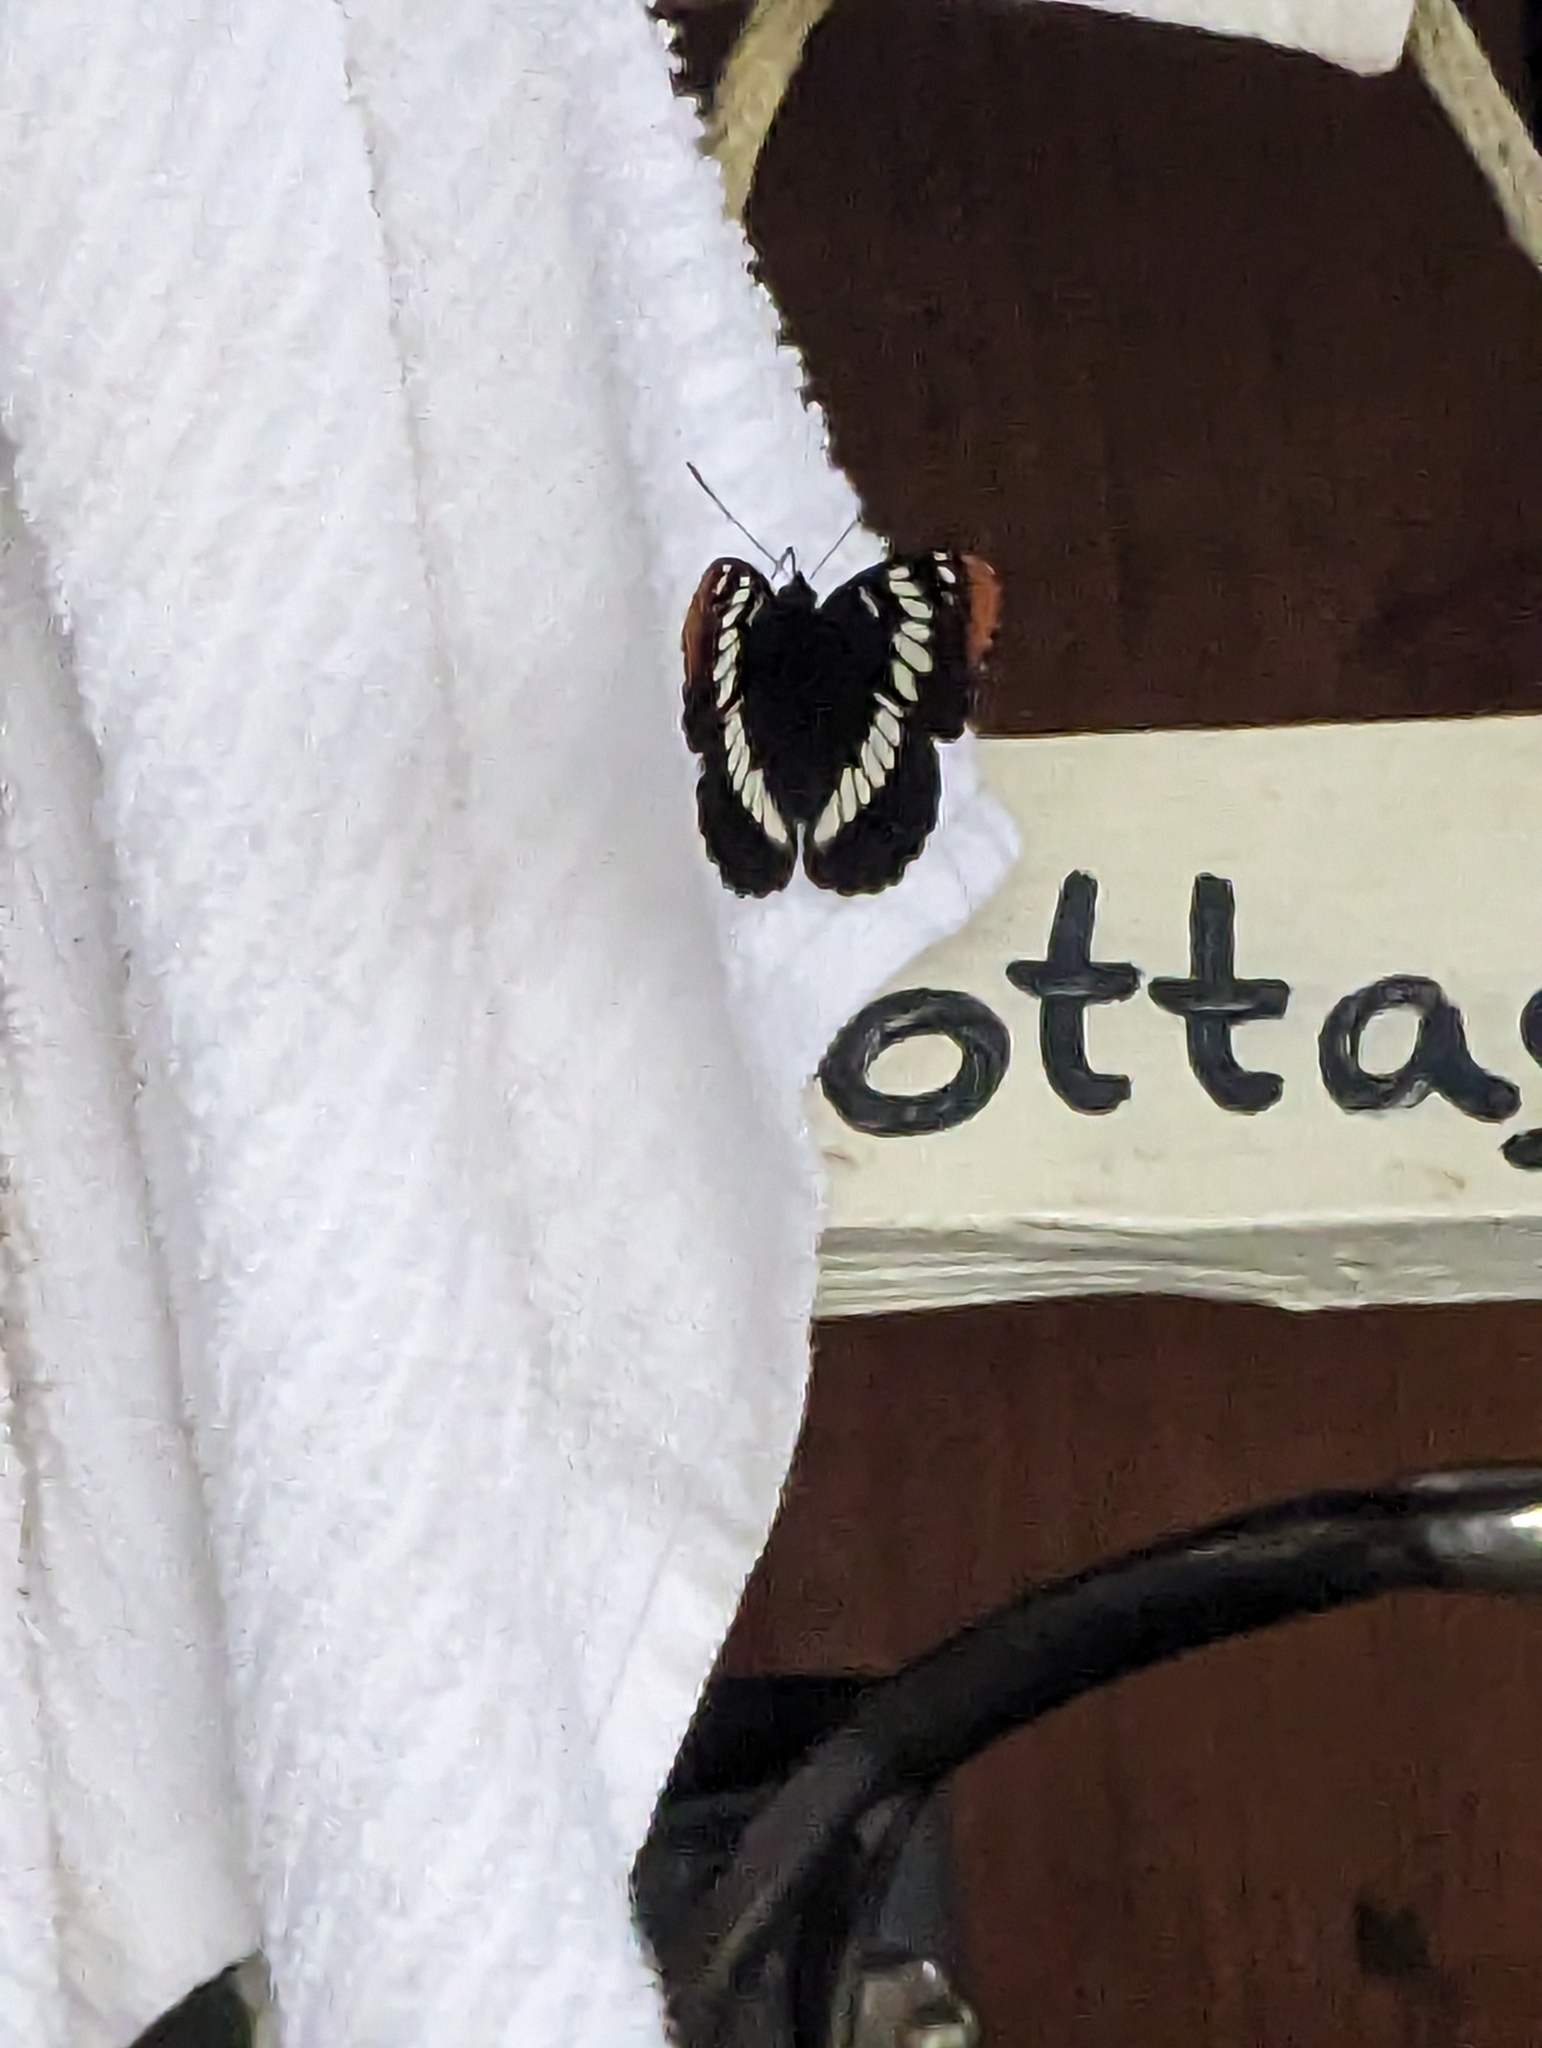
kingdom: Animalia
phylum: Arthropoda
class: Insecta
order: Lepidoptera
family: Nymphalidae
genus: Limenitis
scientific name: Limenitis lorquini
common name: Lorquin's admiral
